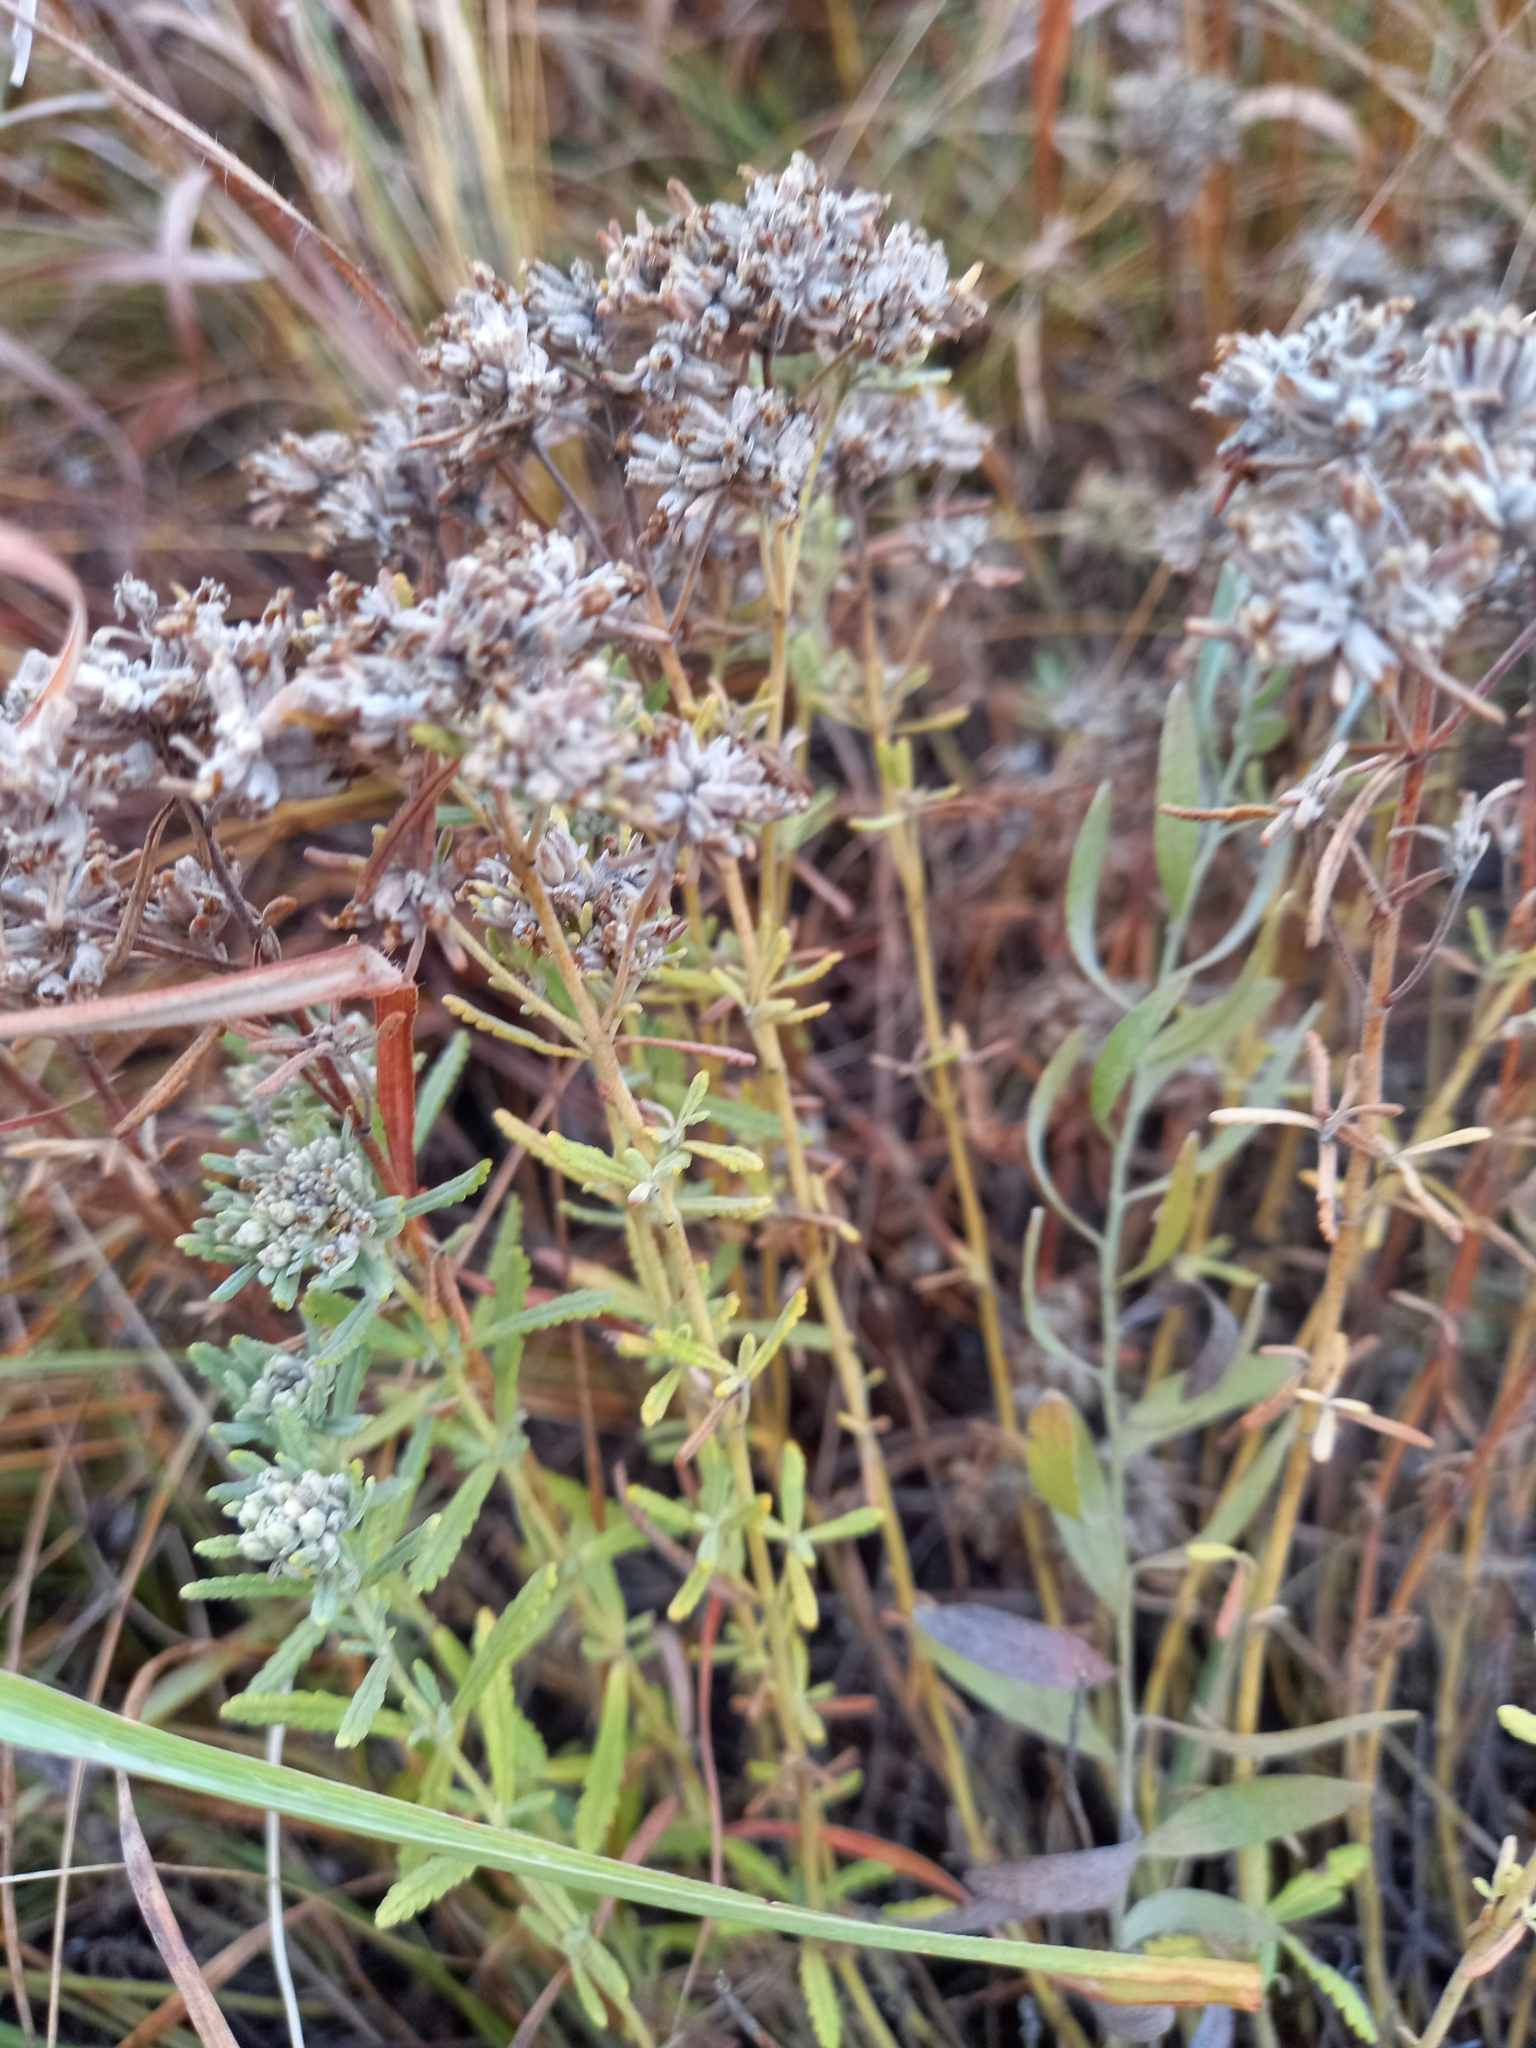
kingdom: Plantae
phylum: Tracheophyta
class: Magnoliopsida
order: Lamiales
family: Lamiaceae
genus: Teucrium
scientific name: Teucrium polium
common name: Poley
